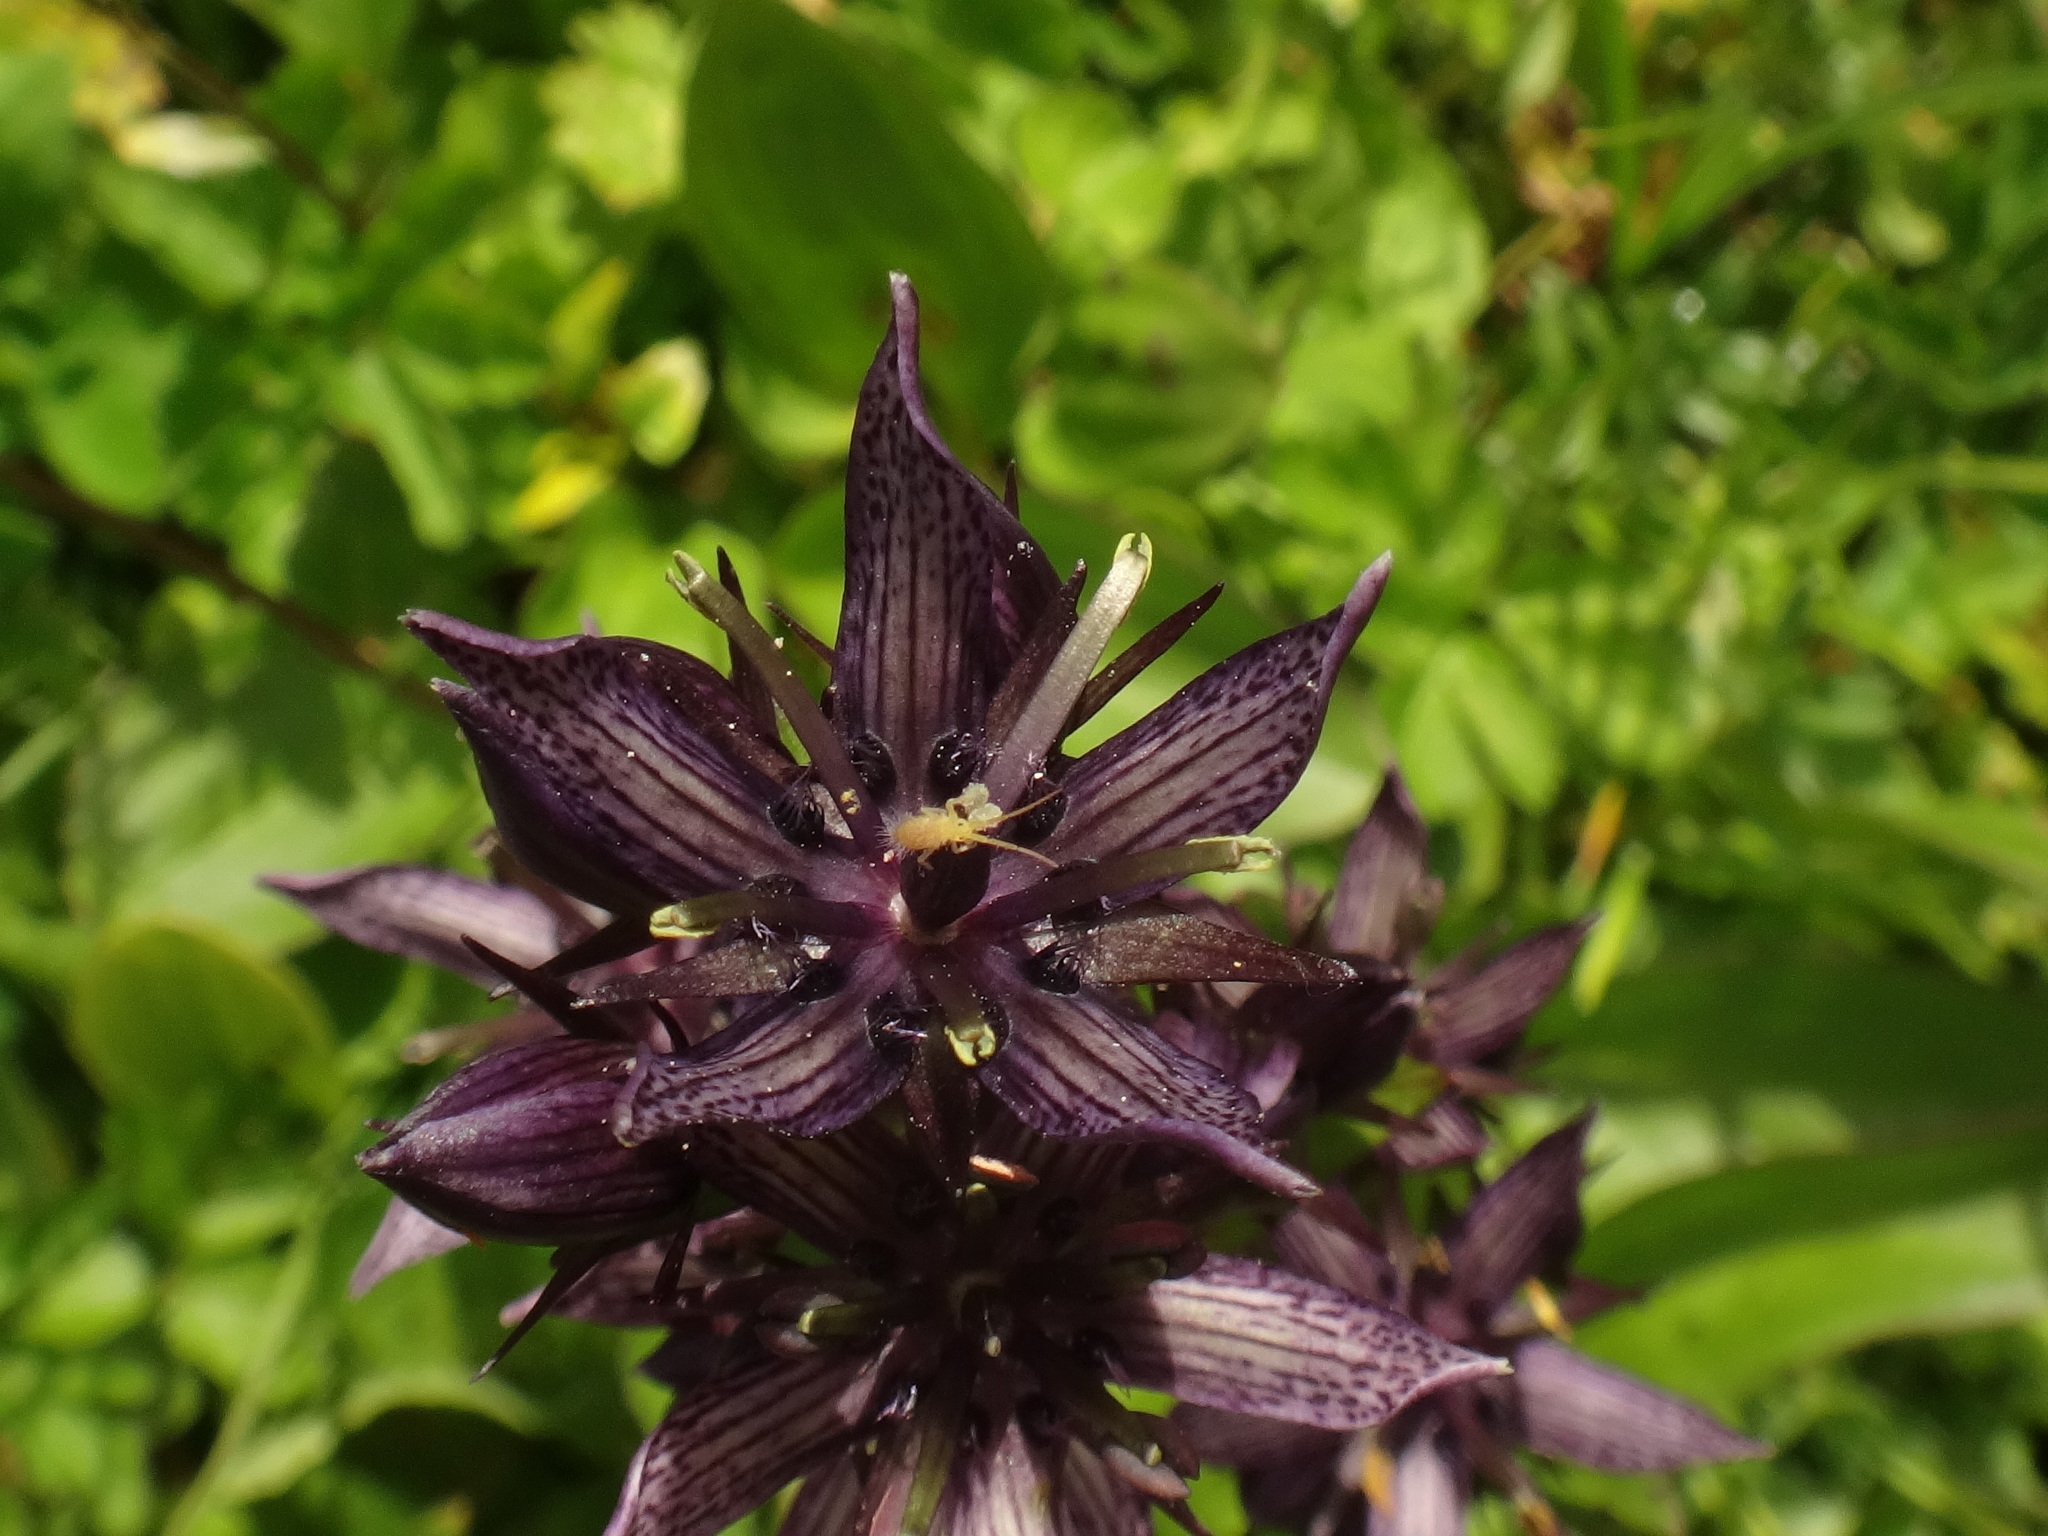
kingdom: Plantae
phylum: Tracheophyta
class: Magnoliopsida
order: Gentianales
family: Gentianaceae
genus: Swertia
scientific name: Swertia perennis
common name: Alpine bog swertia
